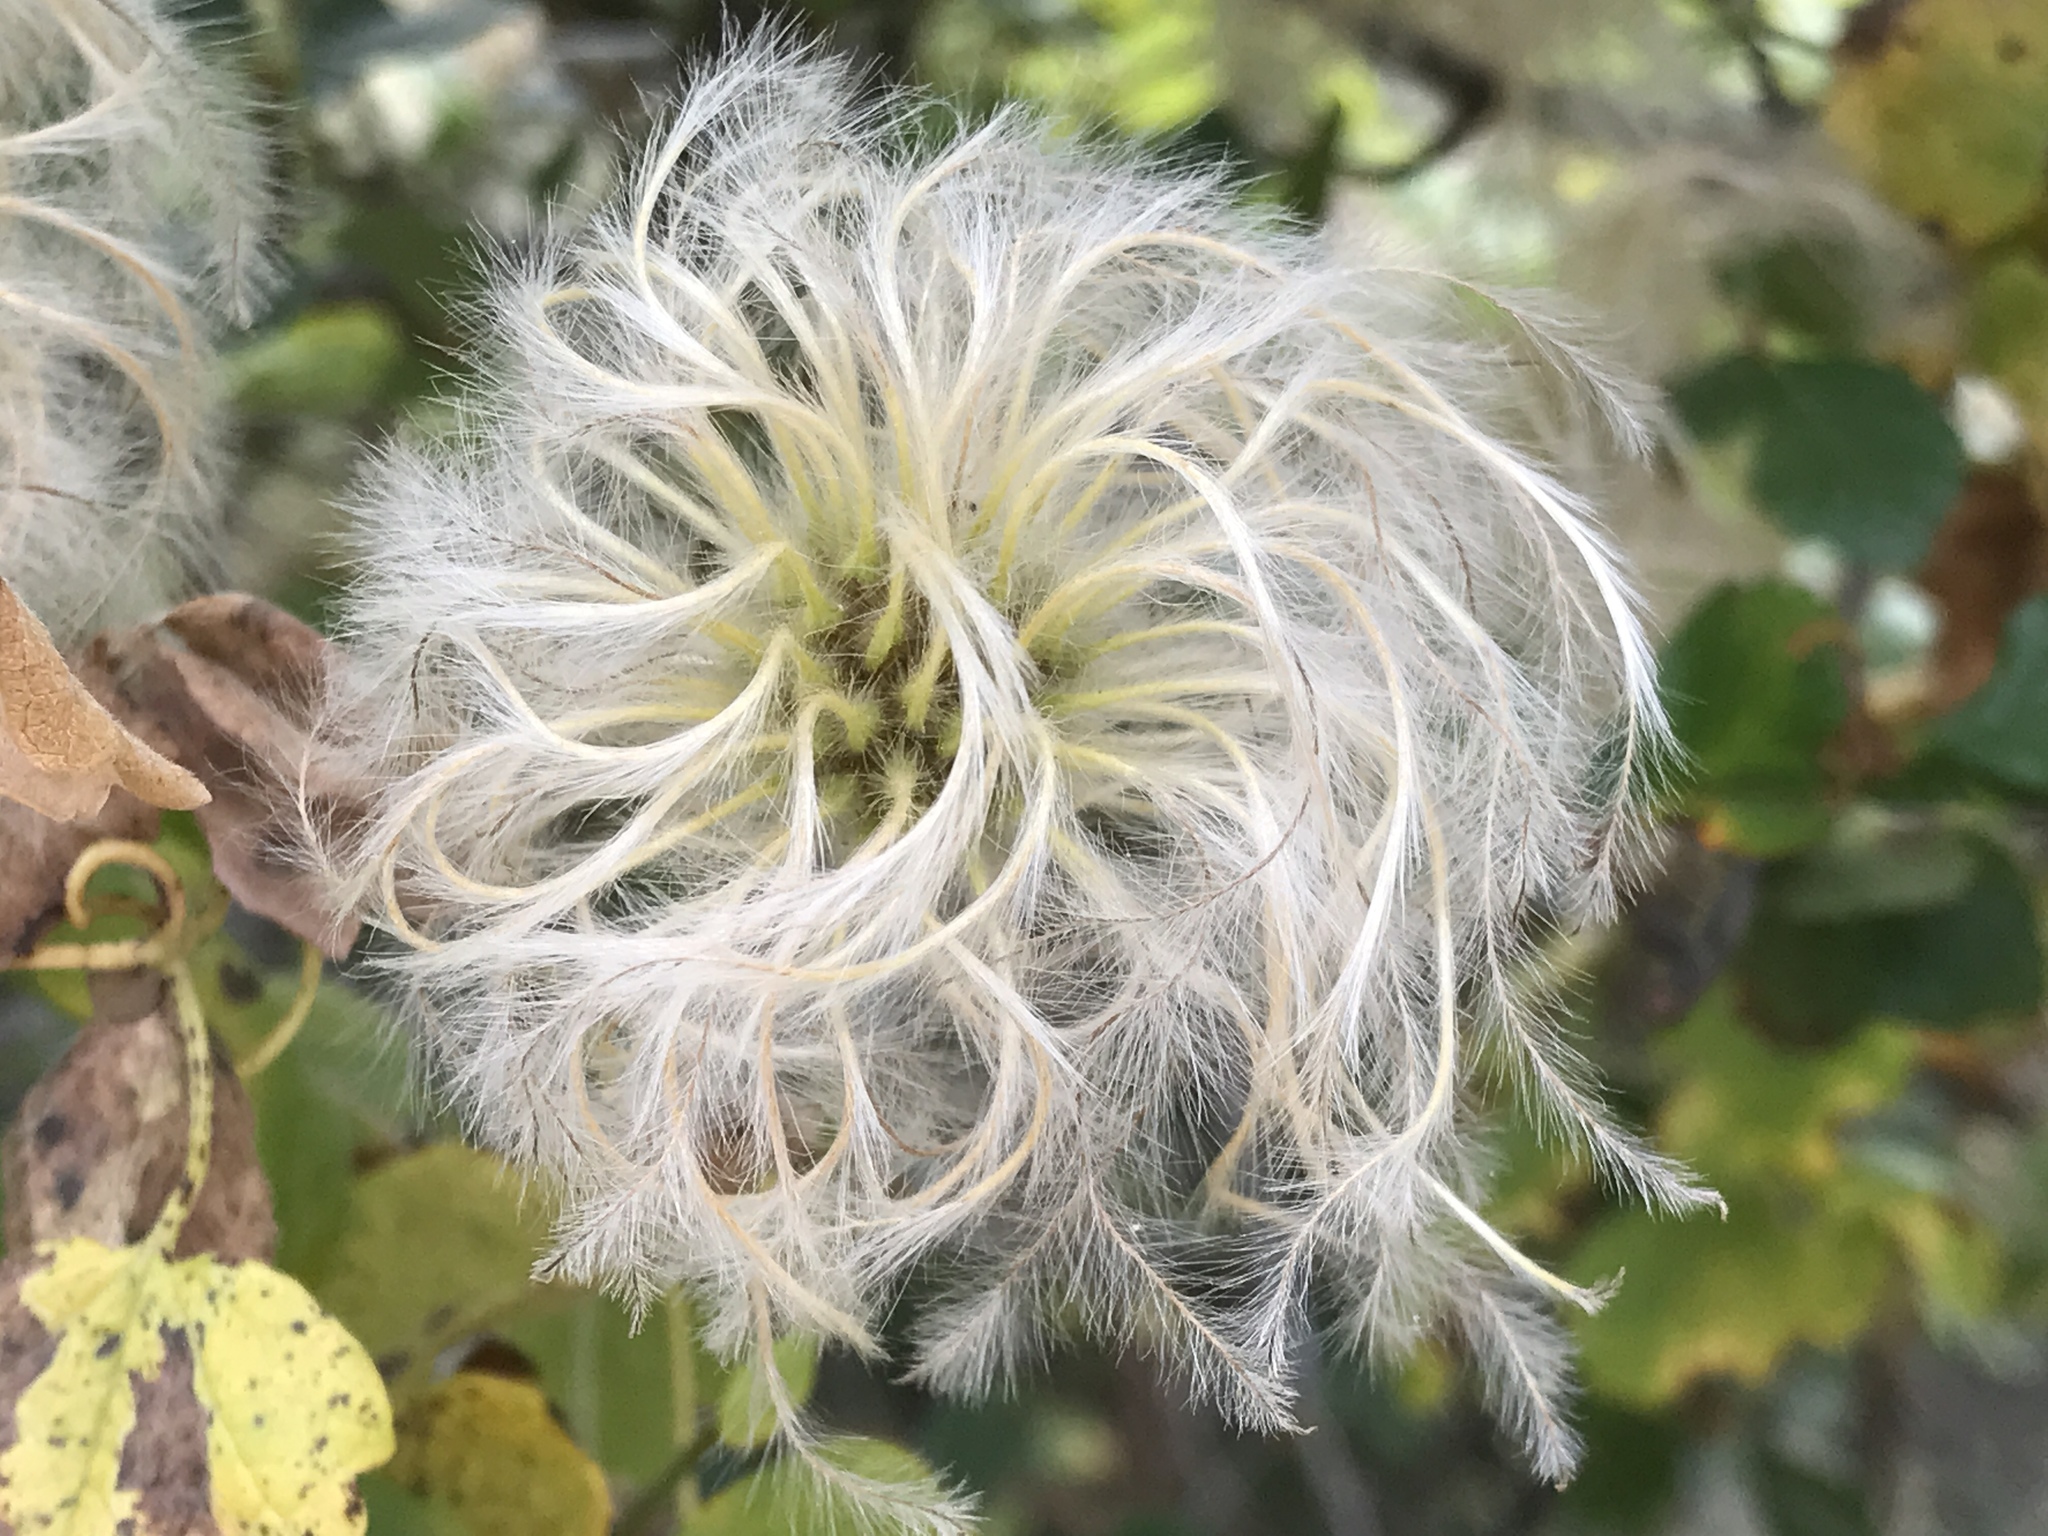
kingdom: Plantae
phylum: Tracheophyta
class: Magnoliopsida
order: Ranunculales
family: Ranunculaceae
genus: Clematis
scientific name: Clematis lasiantha
